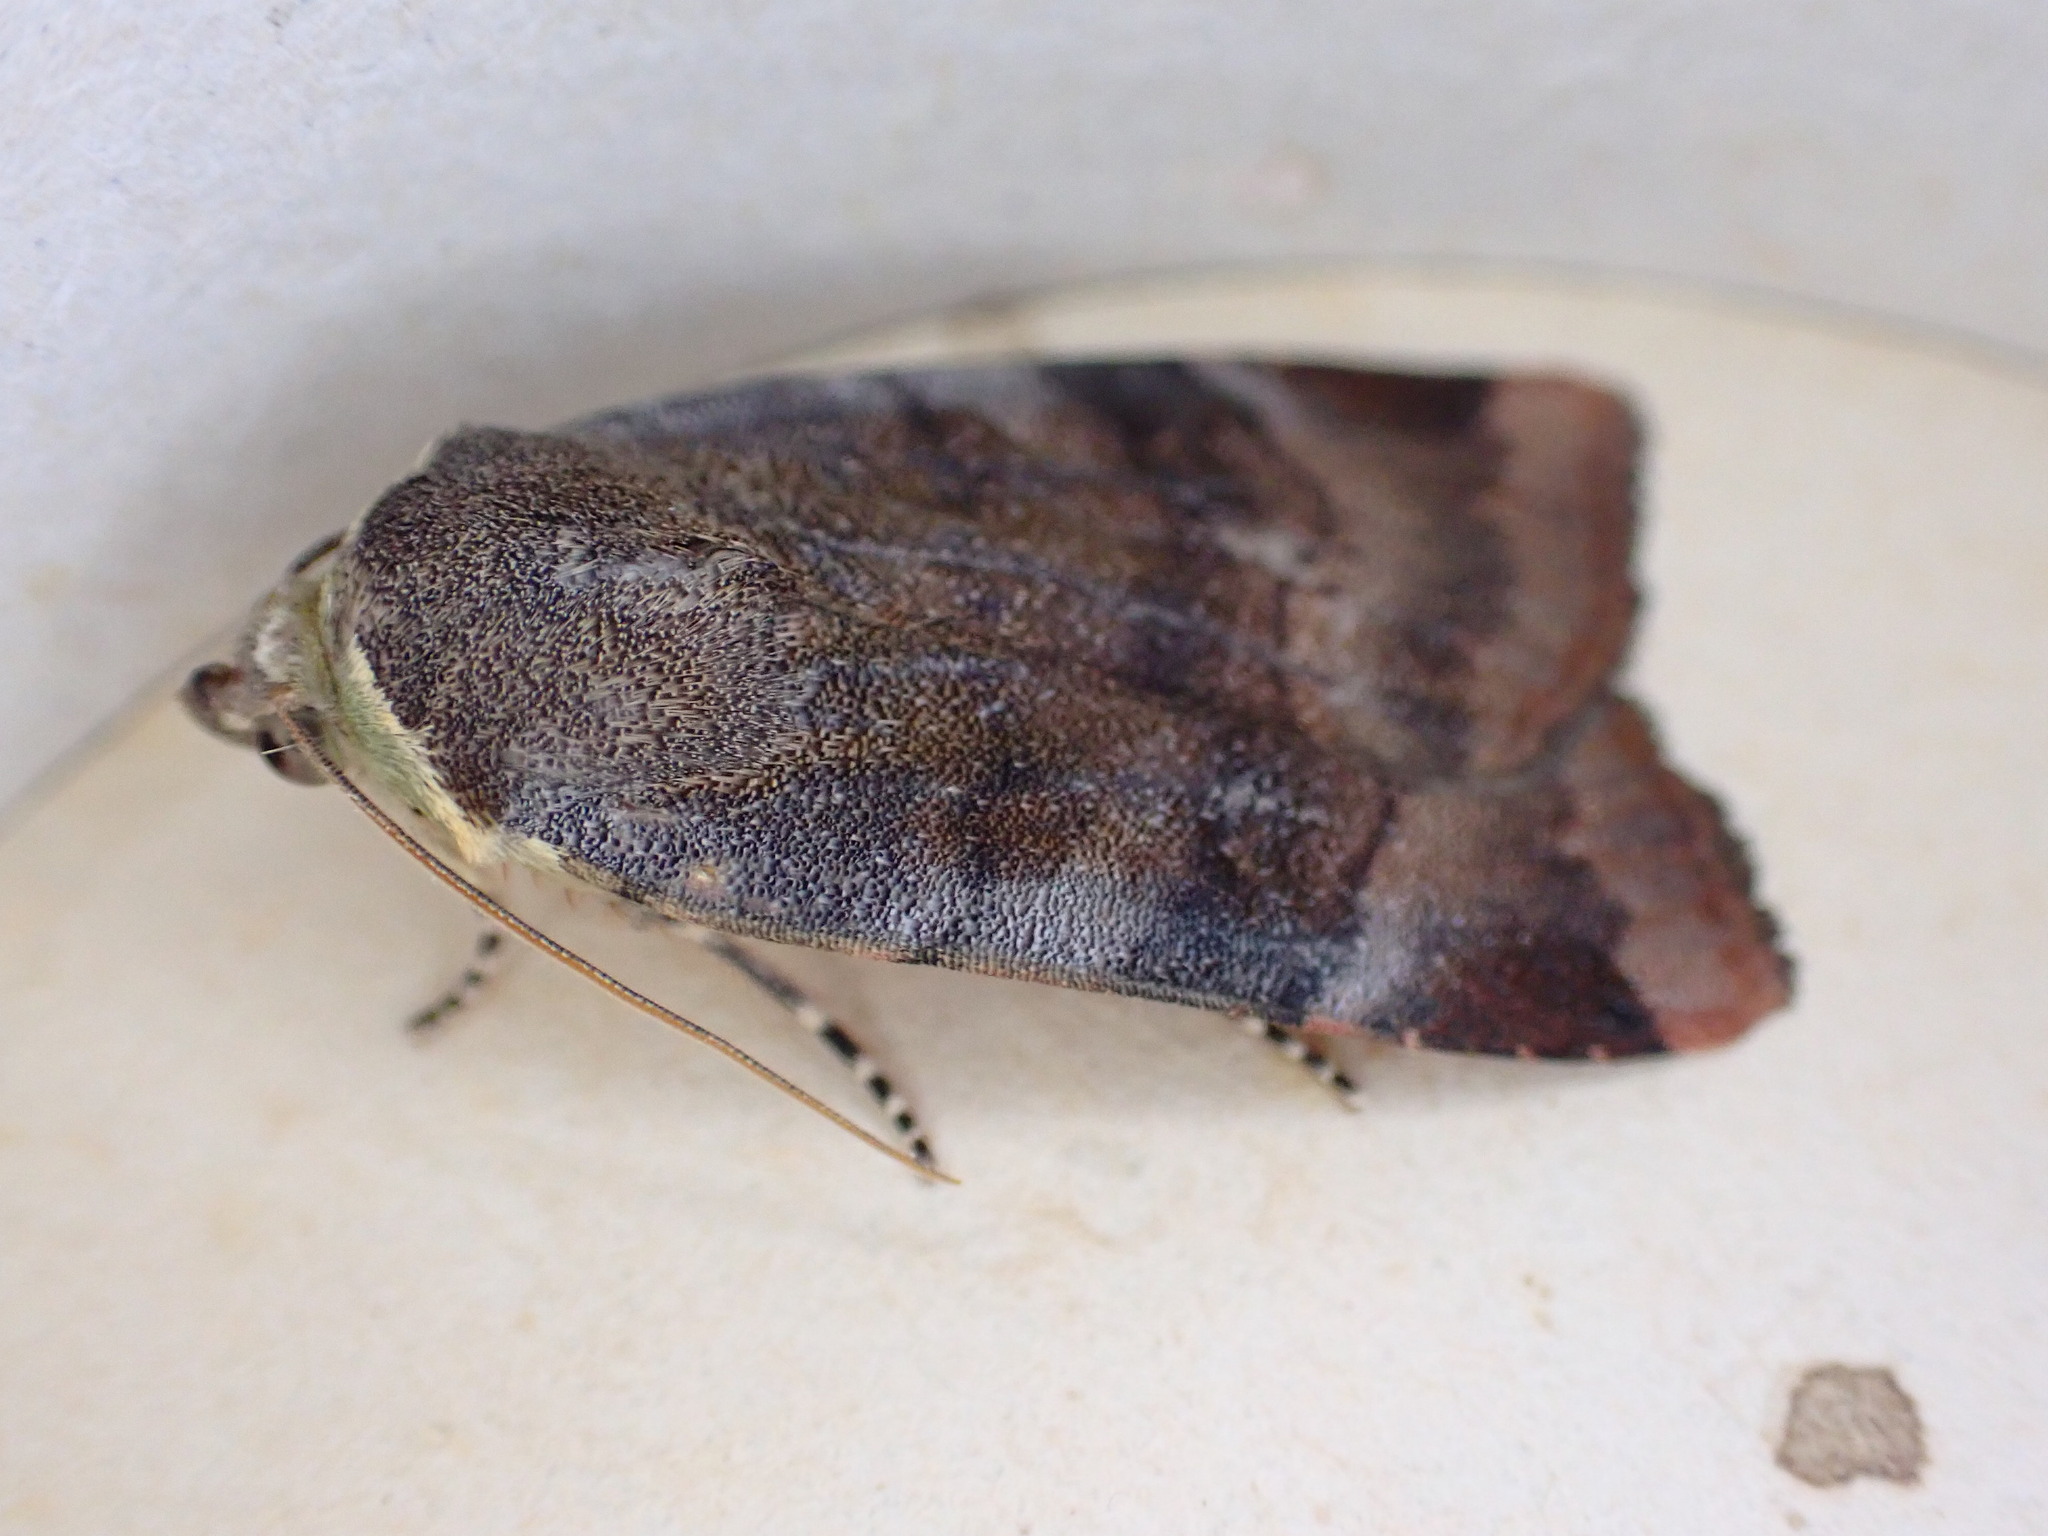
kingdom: Animalia
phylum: Arthropoda
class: Insecta
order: Lepidoptera
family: Noctuidae
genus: Noctua
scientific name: Noctua janthe
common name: Lesser broad-bordered yellow underwing
